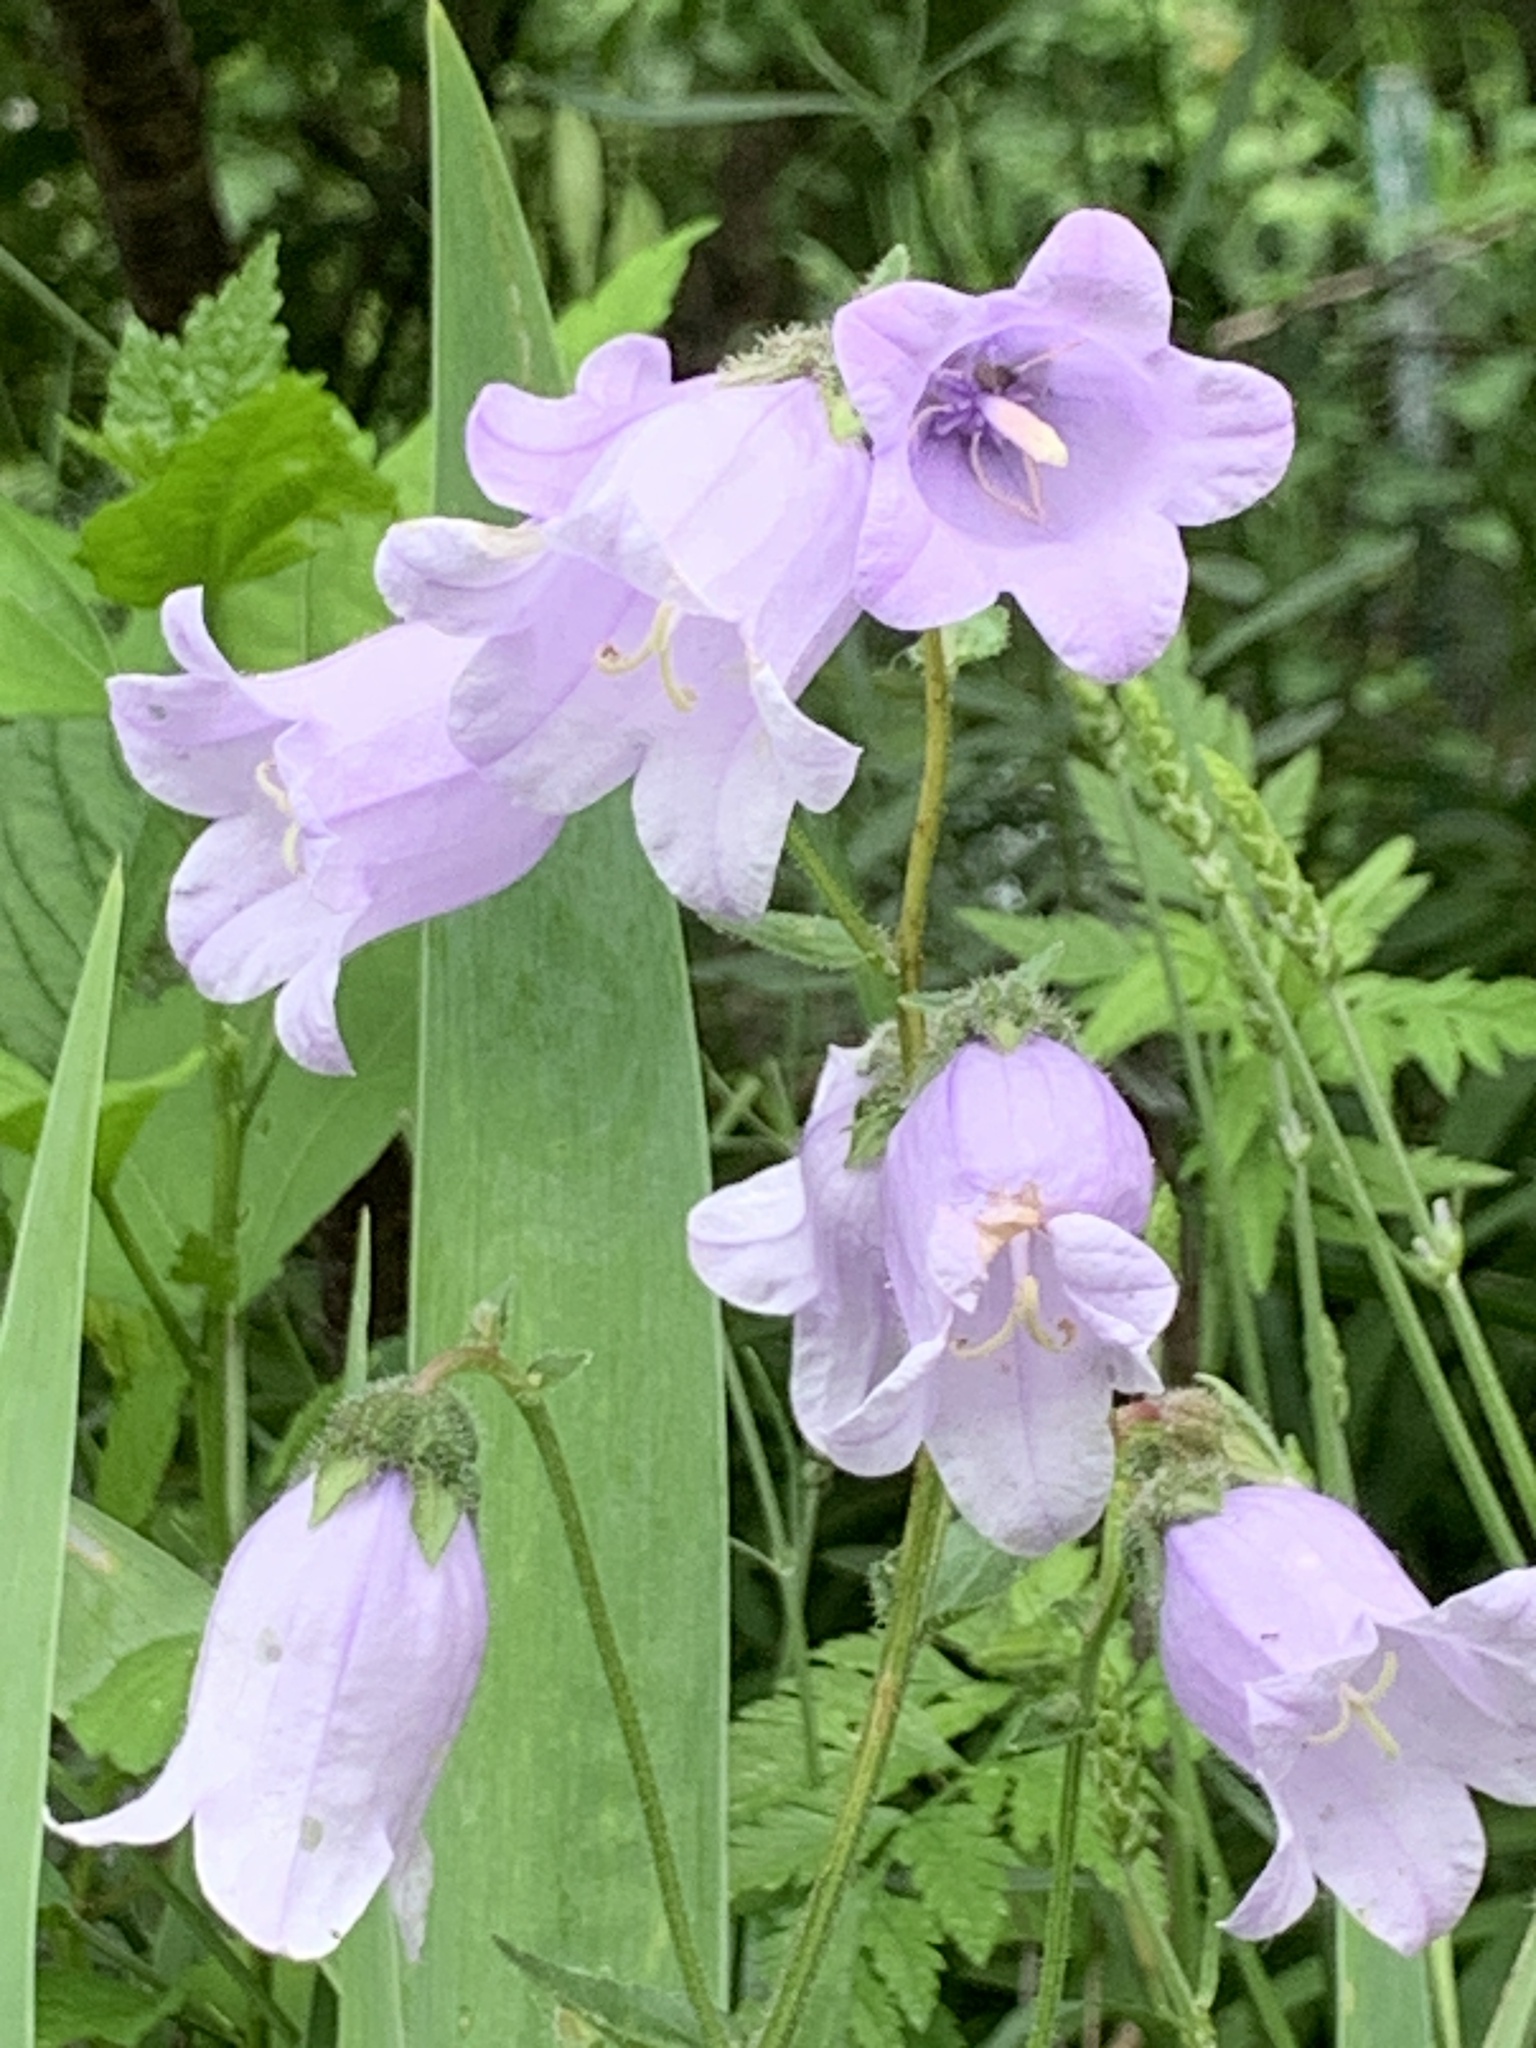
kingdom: Plantae
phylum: Tracheophyta
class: Magnoliopsida
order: Asterales
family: Campanulaceae
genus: Campanula
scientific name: Campanula komarovii
